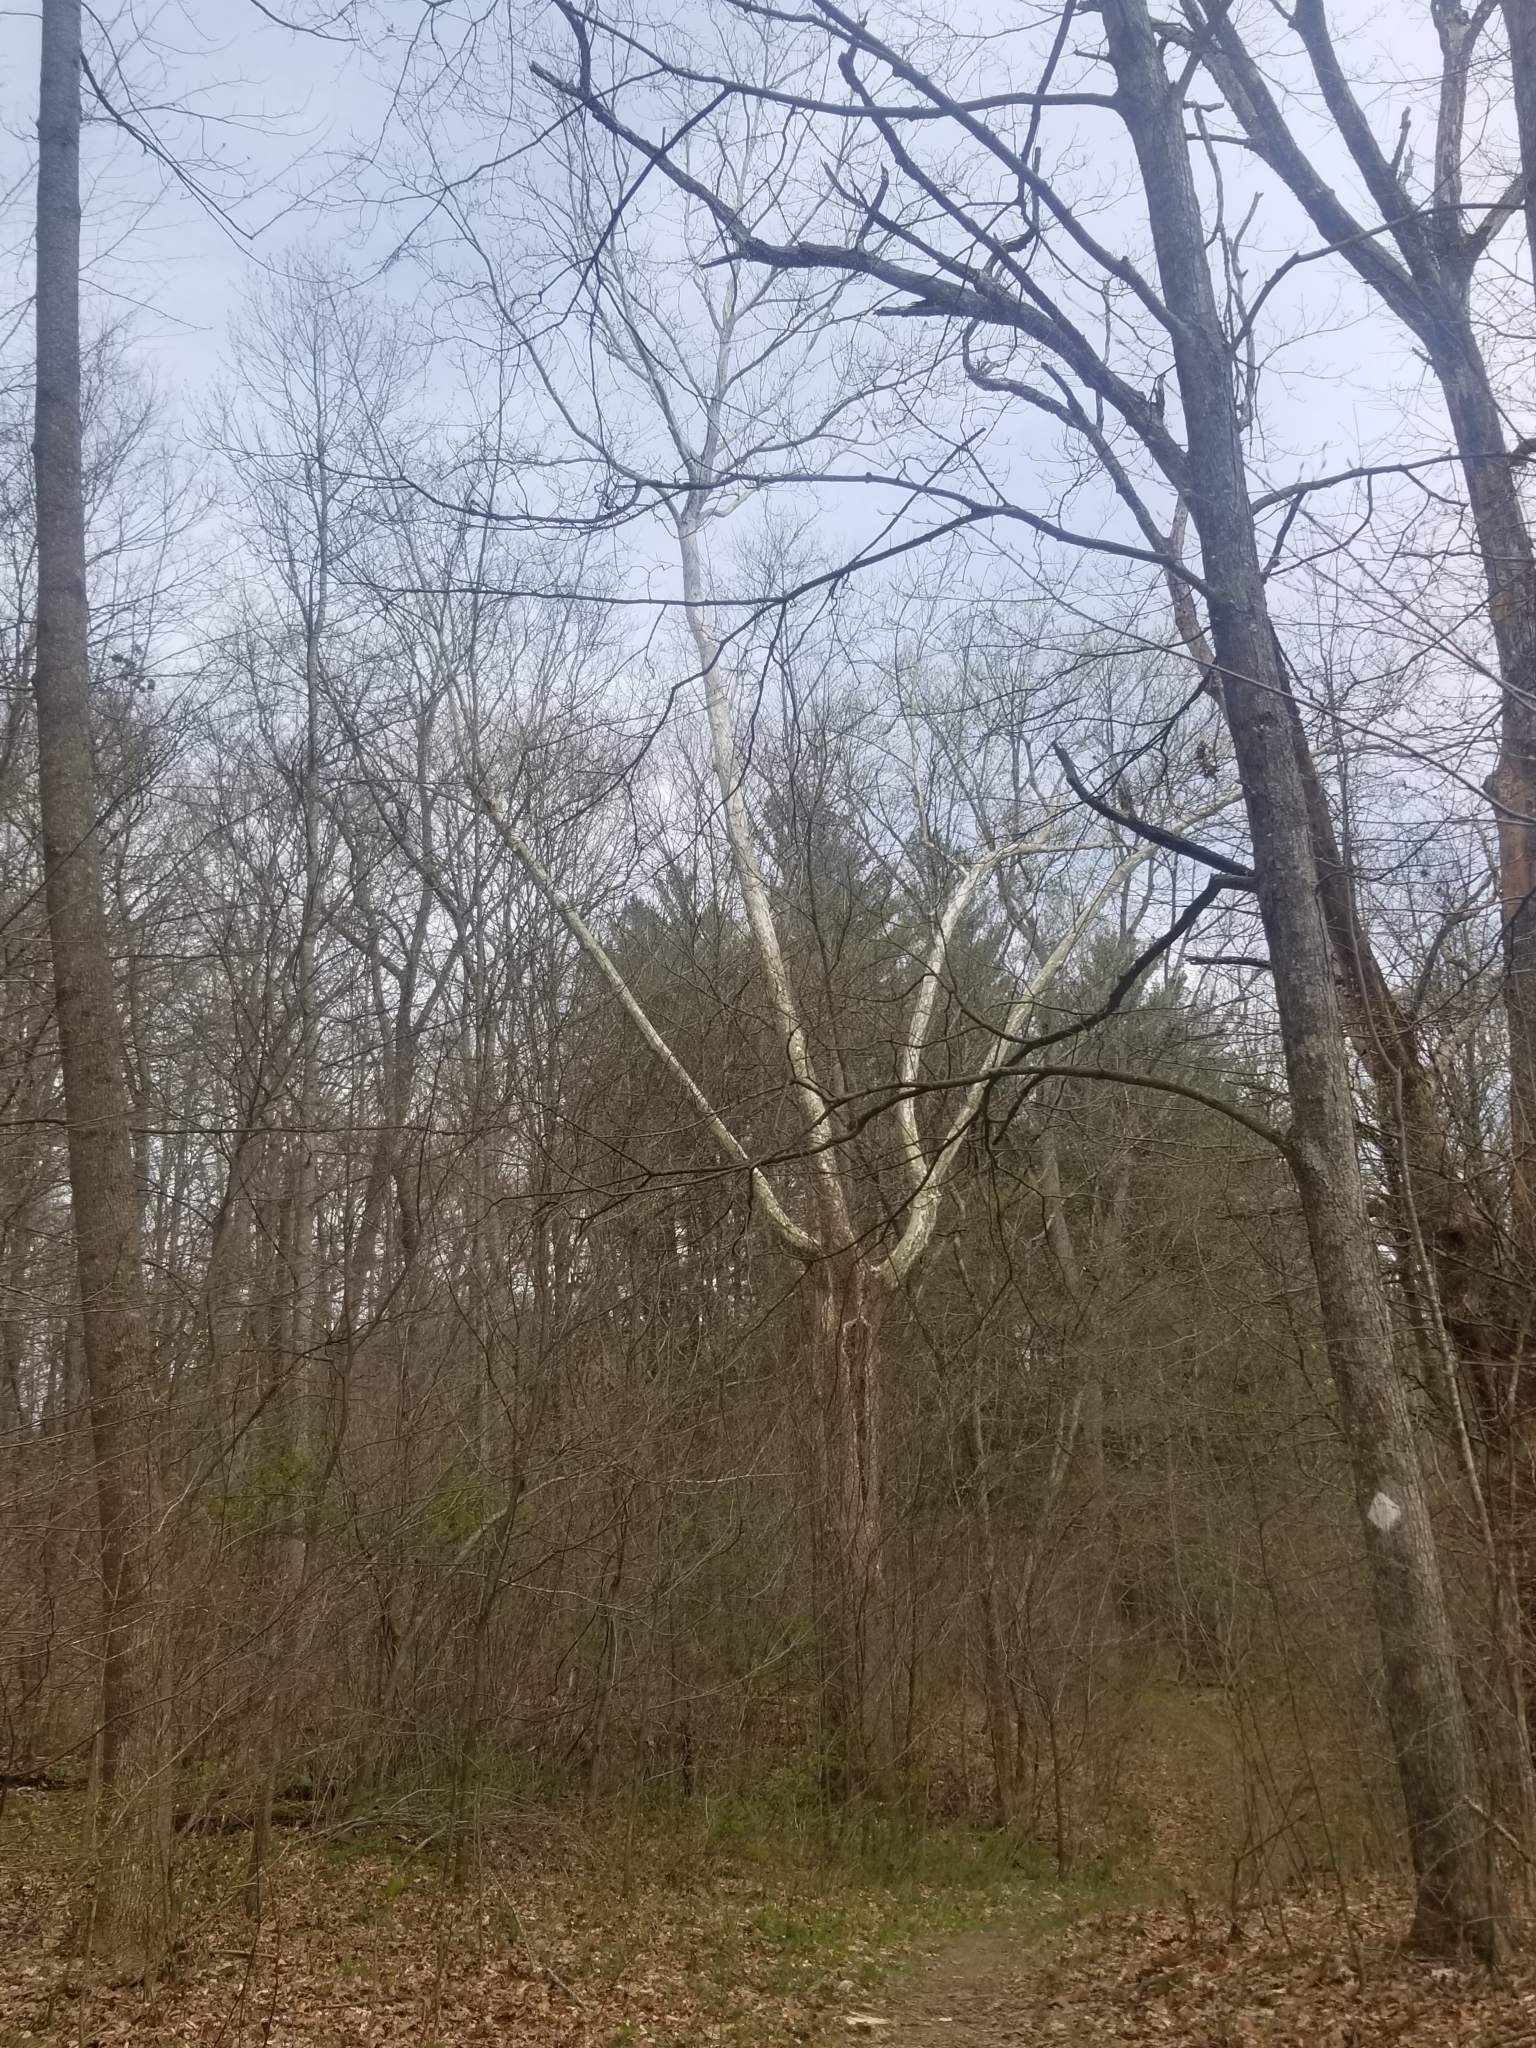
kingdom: Plantae
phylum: Tracheophyta
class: Magnoliopsida
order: Proteales
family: Platanaceae
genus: Platanus
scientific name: Platanus occidentalis
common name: American sycamore
